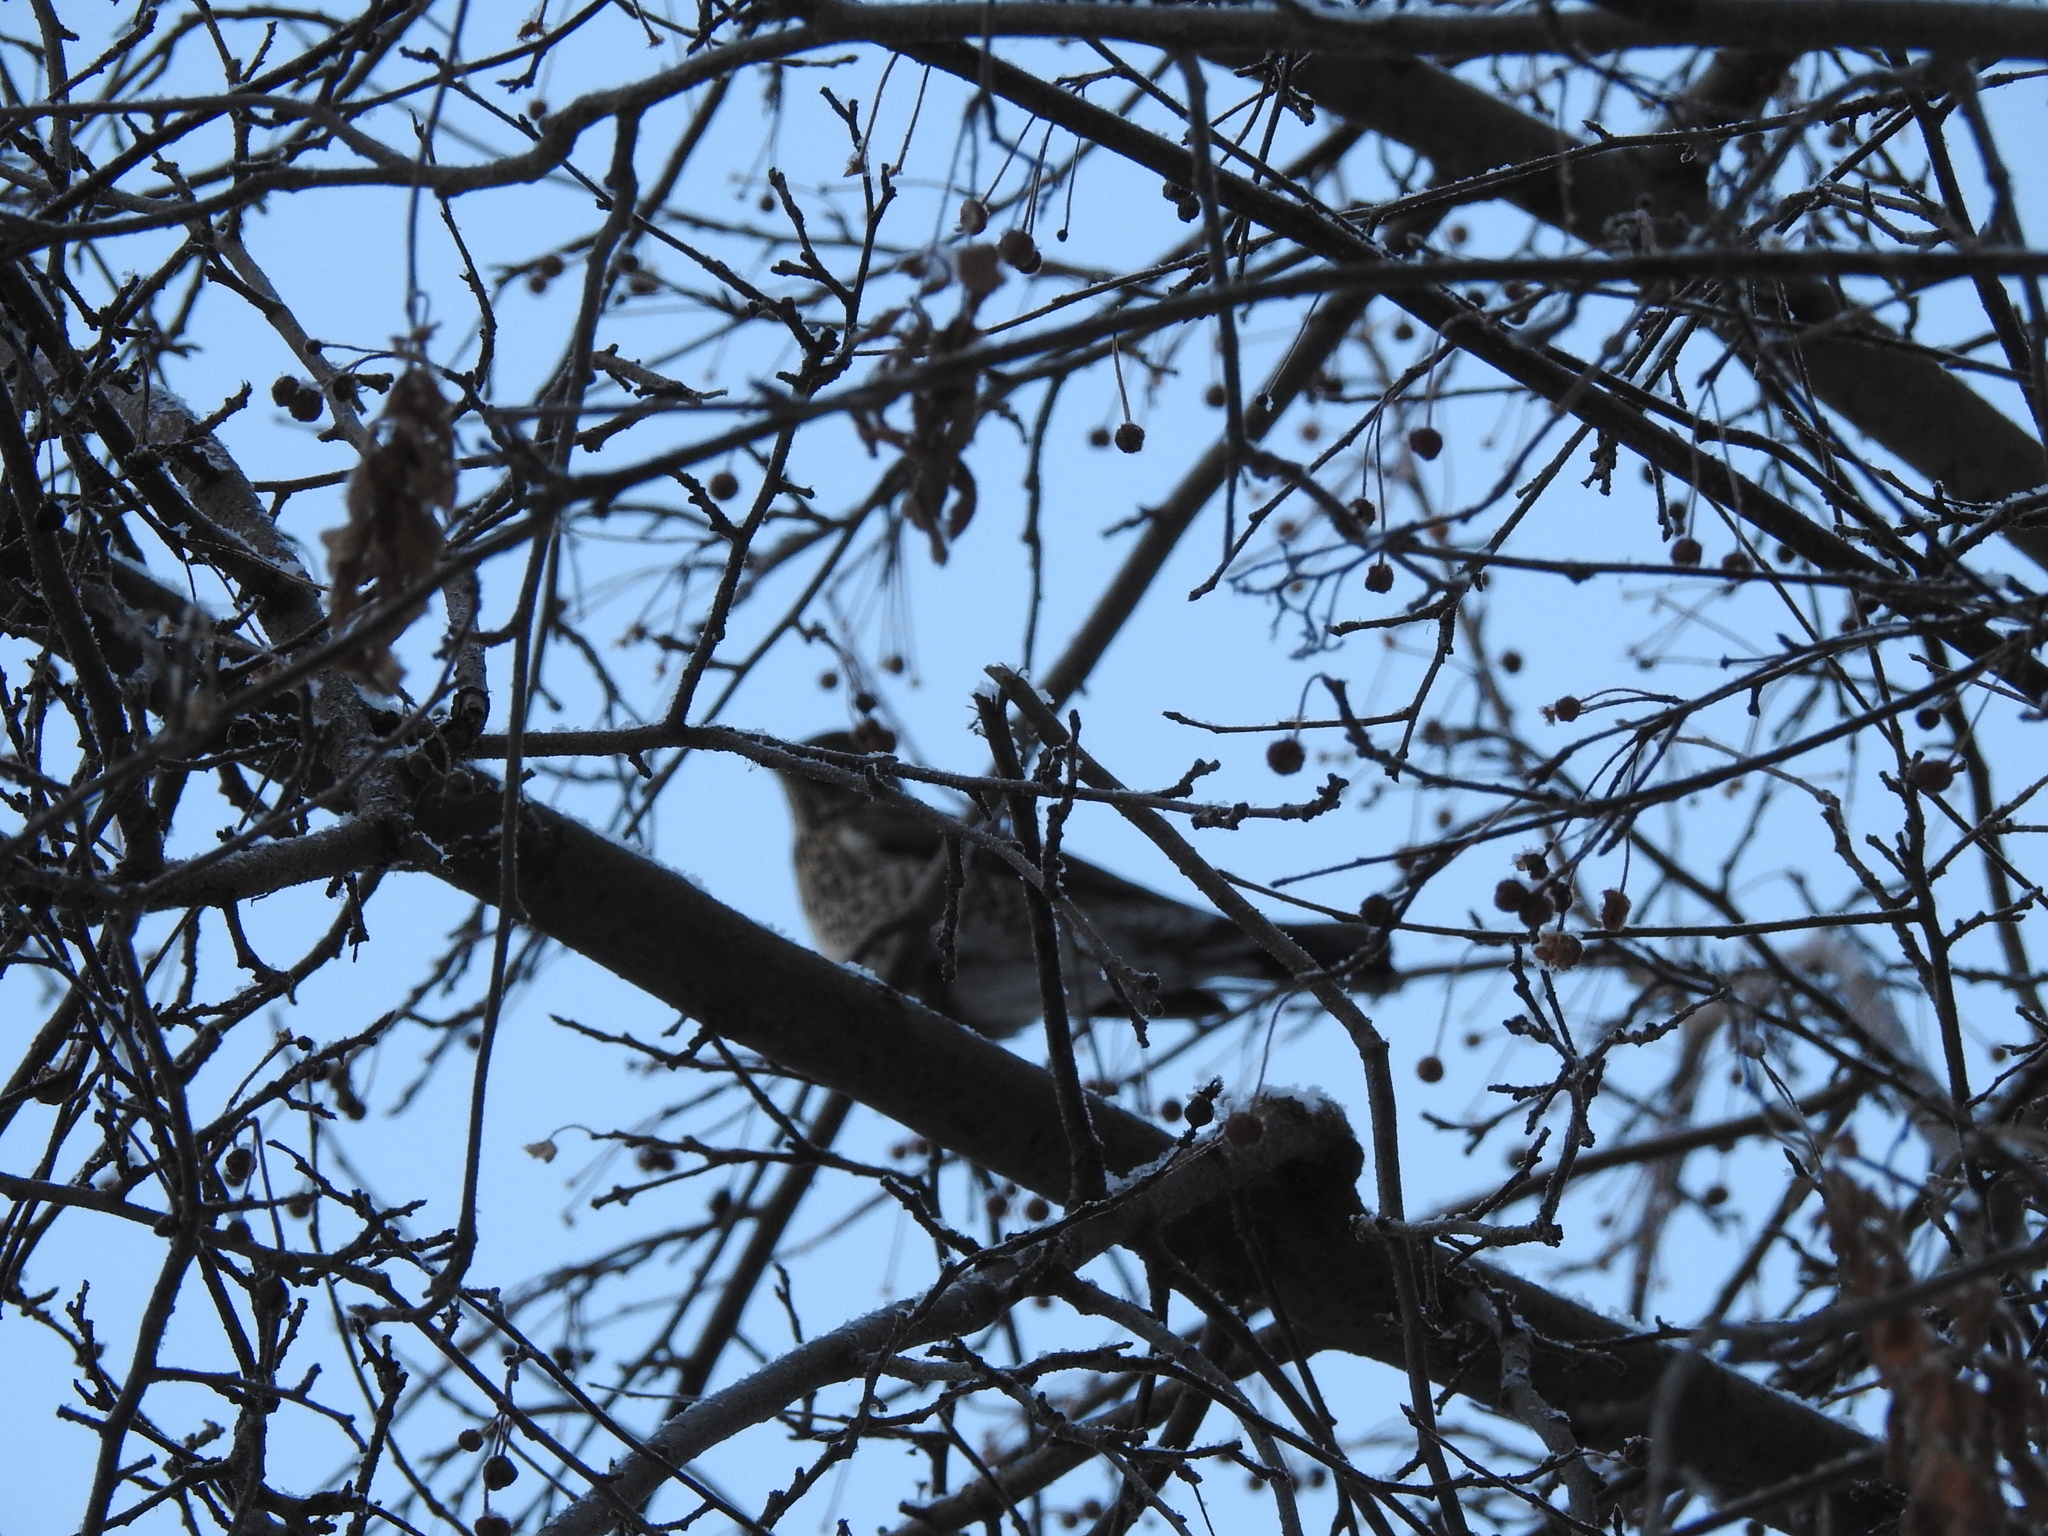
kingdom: Animalia
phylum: Chordata
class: Aves
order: Passeriformes
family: Turdidae
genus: Turdus
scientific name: Turdus pilaris
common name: Fieldfare
